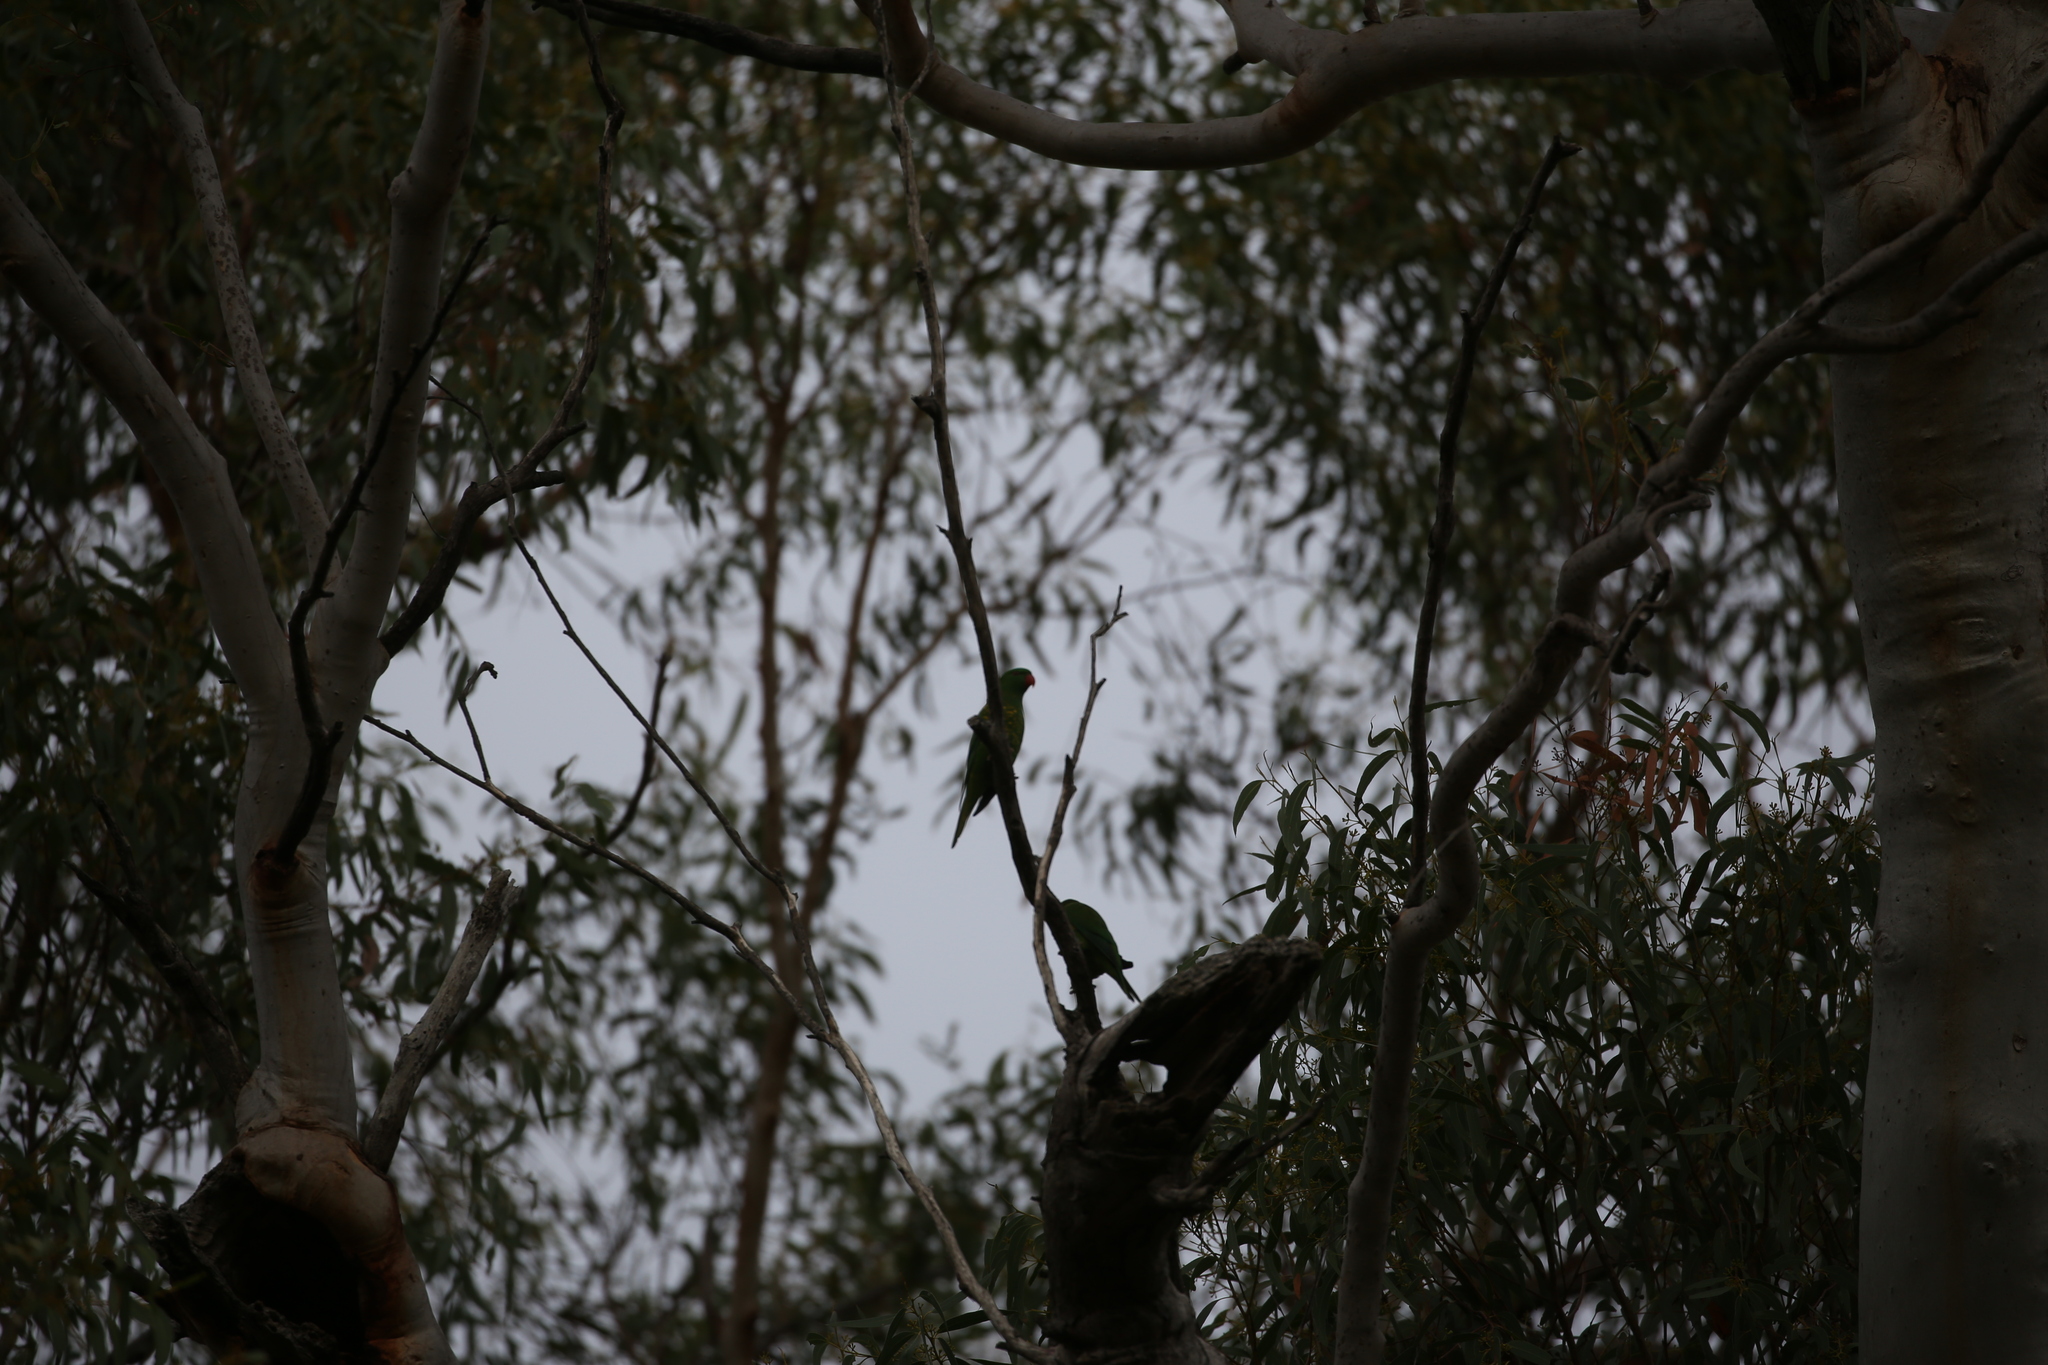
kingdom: Animalia
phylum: Chordata
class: Aves
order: Psittaciformes
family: Psittacidae
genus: Trichoglossus
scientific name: Trichoglossus chlorolepidotus
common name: Scaly-breasted lorikeet
